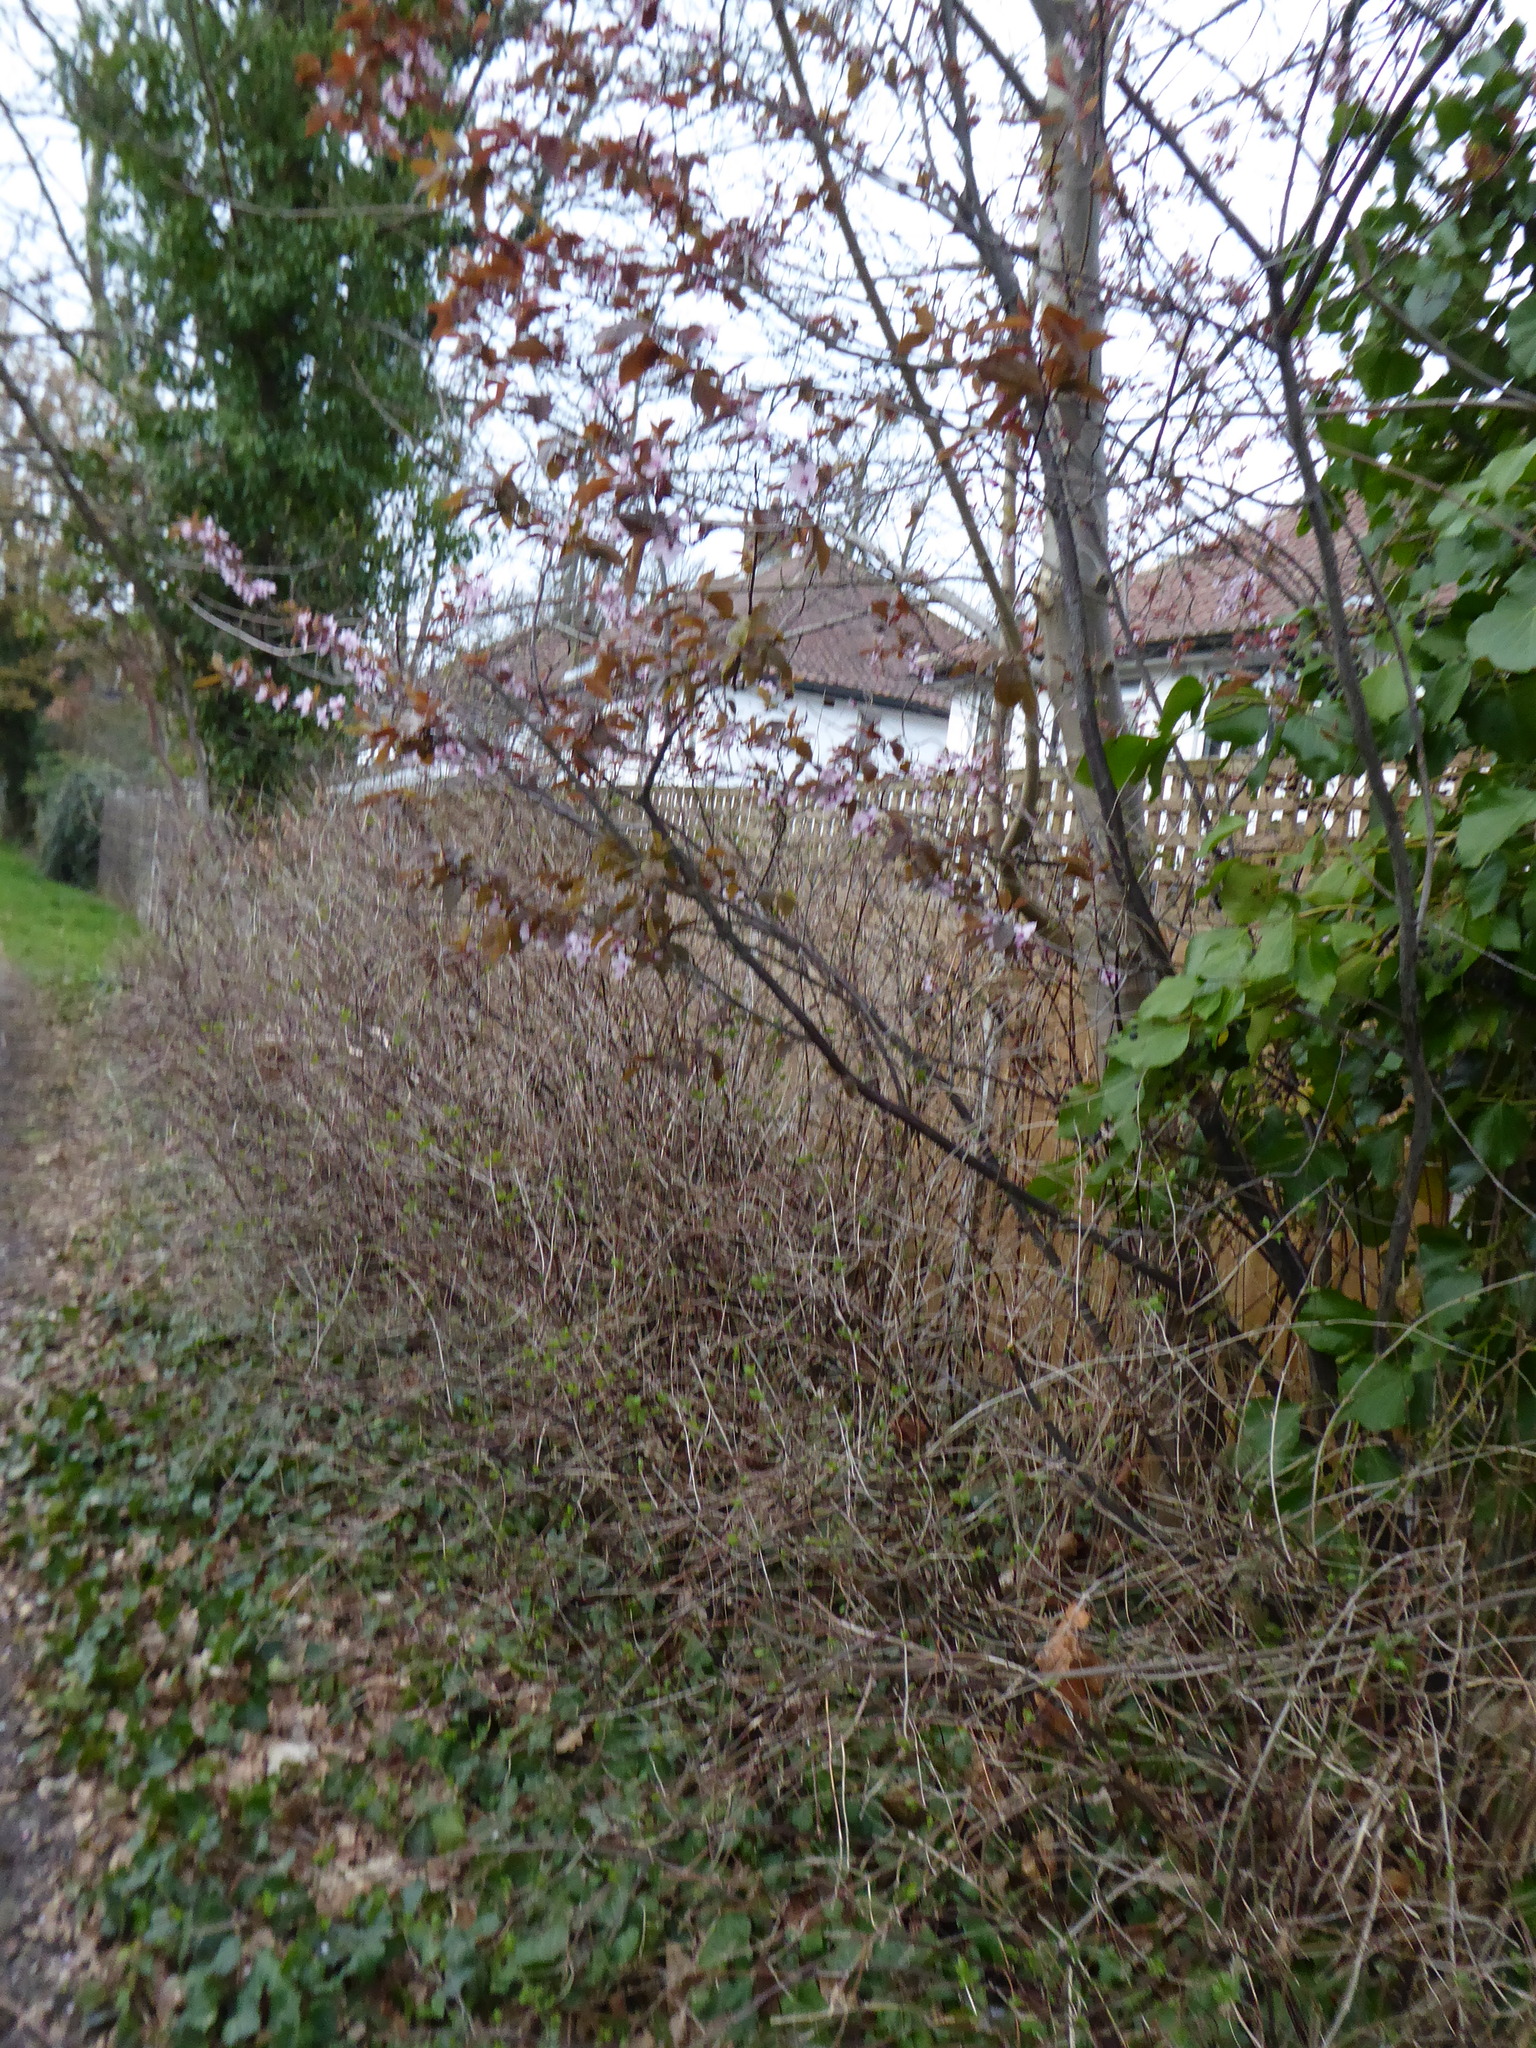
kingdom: Plantae
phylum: Tracheophyta
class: Magnoliopsida
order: Rosales
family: Rosaceae
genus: Prunus
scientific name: Prunus cerasifera
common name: Cherry plum
